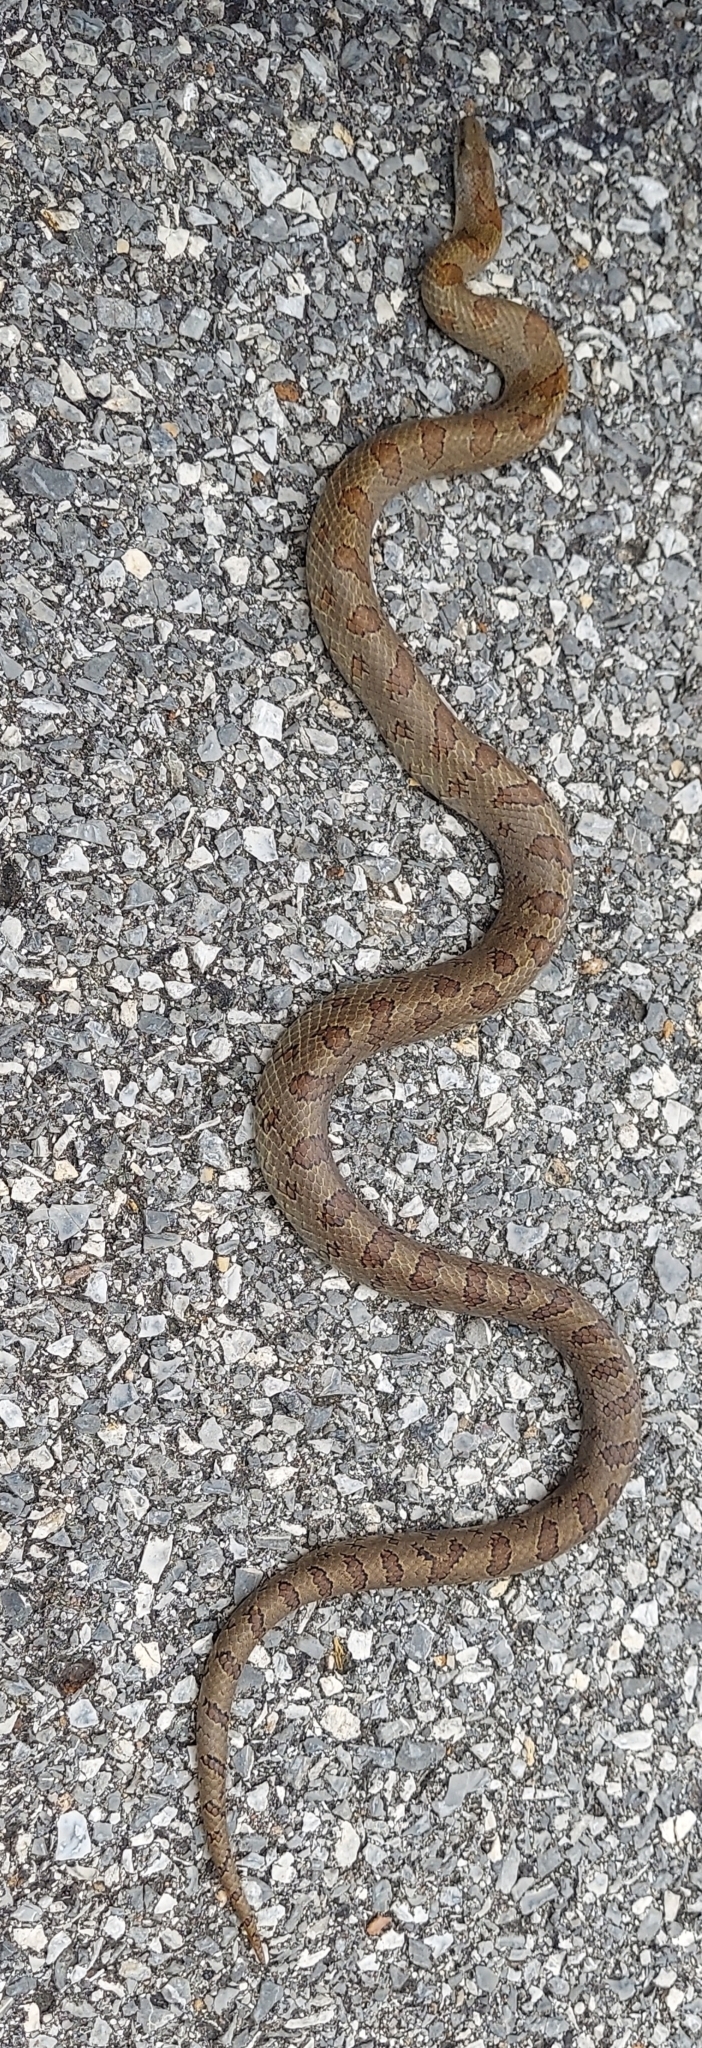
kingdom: Animalia
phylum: Chordata
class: Squamata
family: Colubridae
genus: Lampropeltis
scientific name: Lampropeltis rhombomaculata
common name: Mole kingsnake
